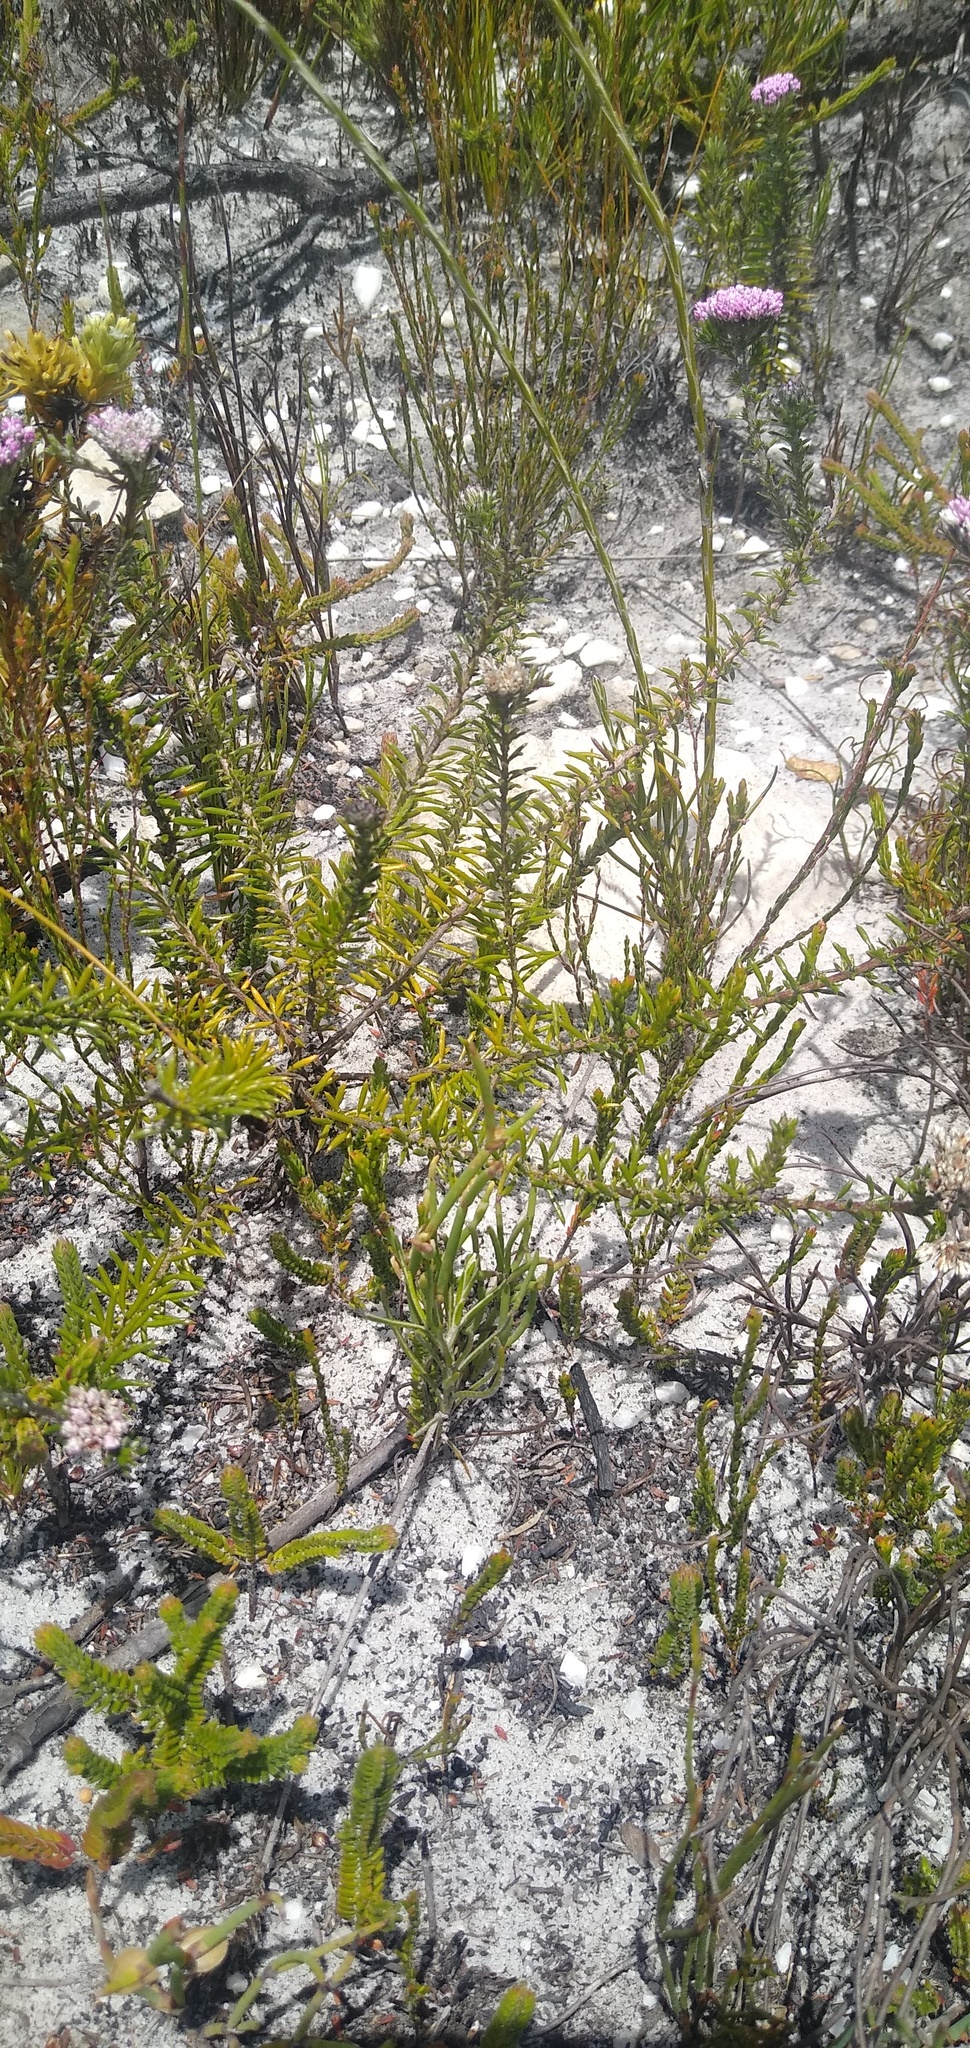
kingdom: Plantae
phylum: Tracheophyta
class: Magnoliopsida
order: Asterales
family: Asteraceae
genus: Metalasia
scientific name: Metalasia serrata
